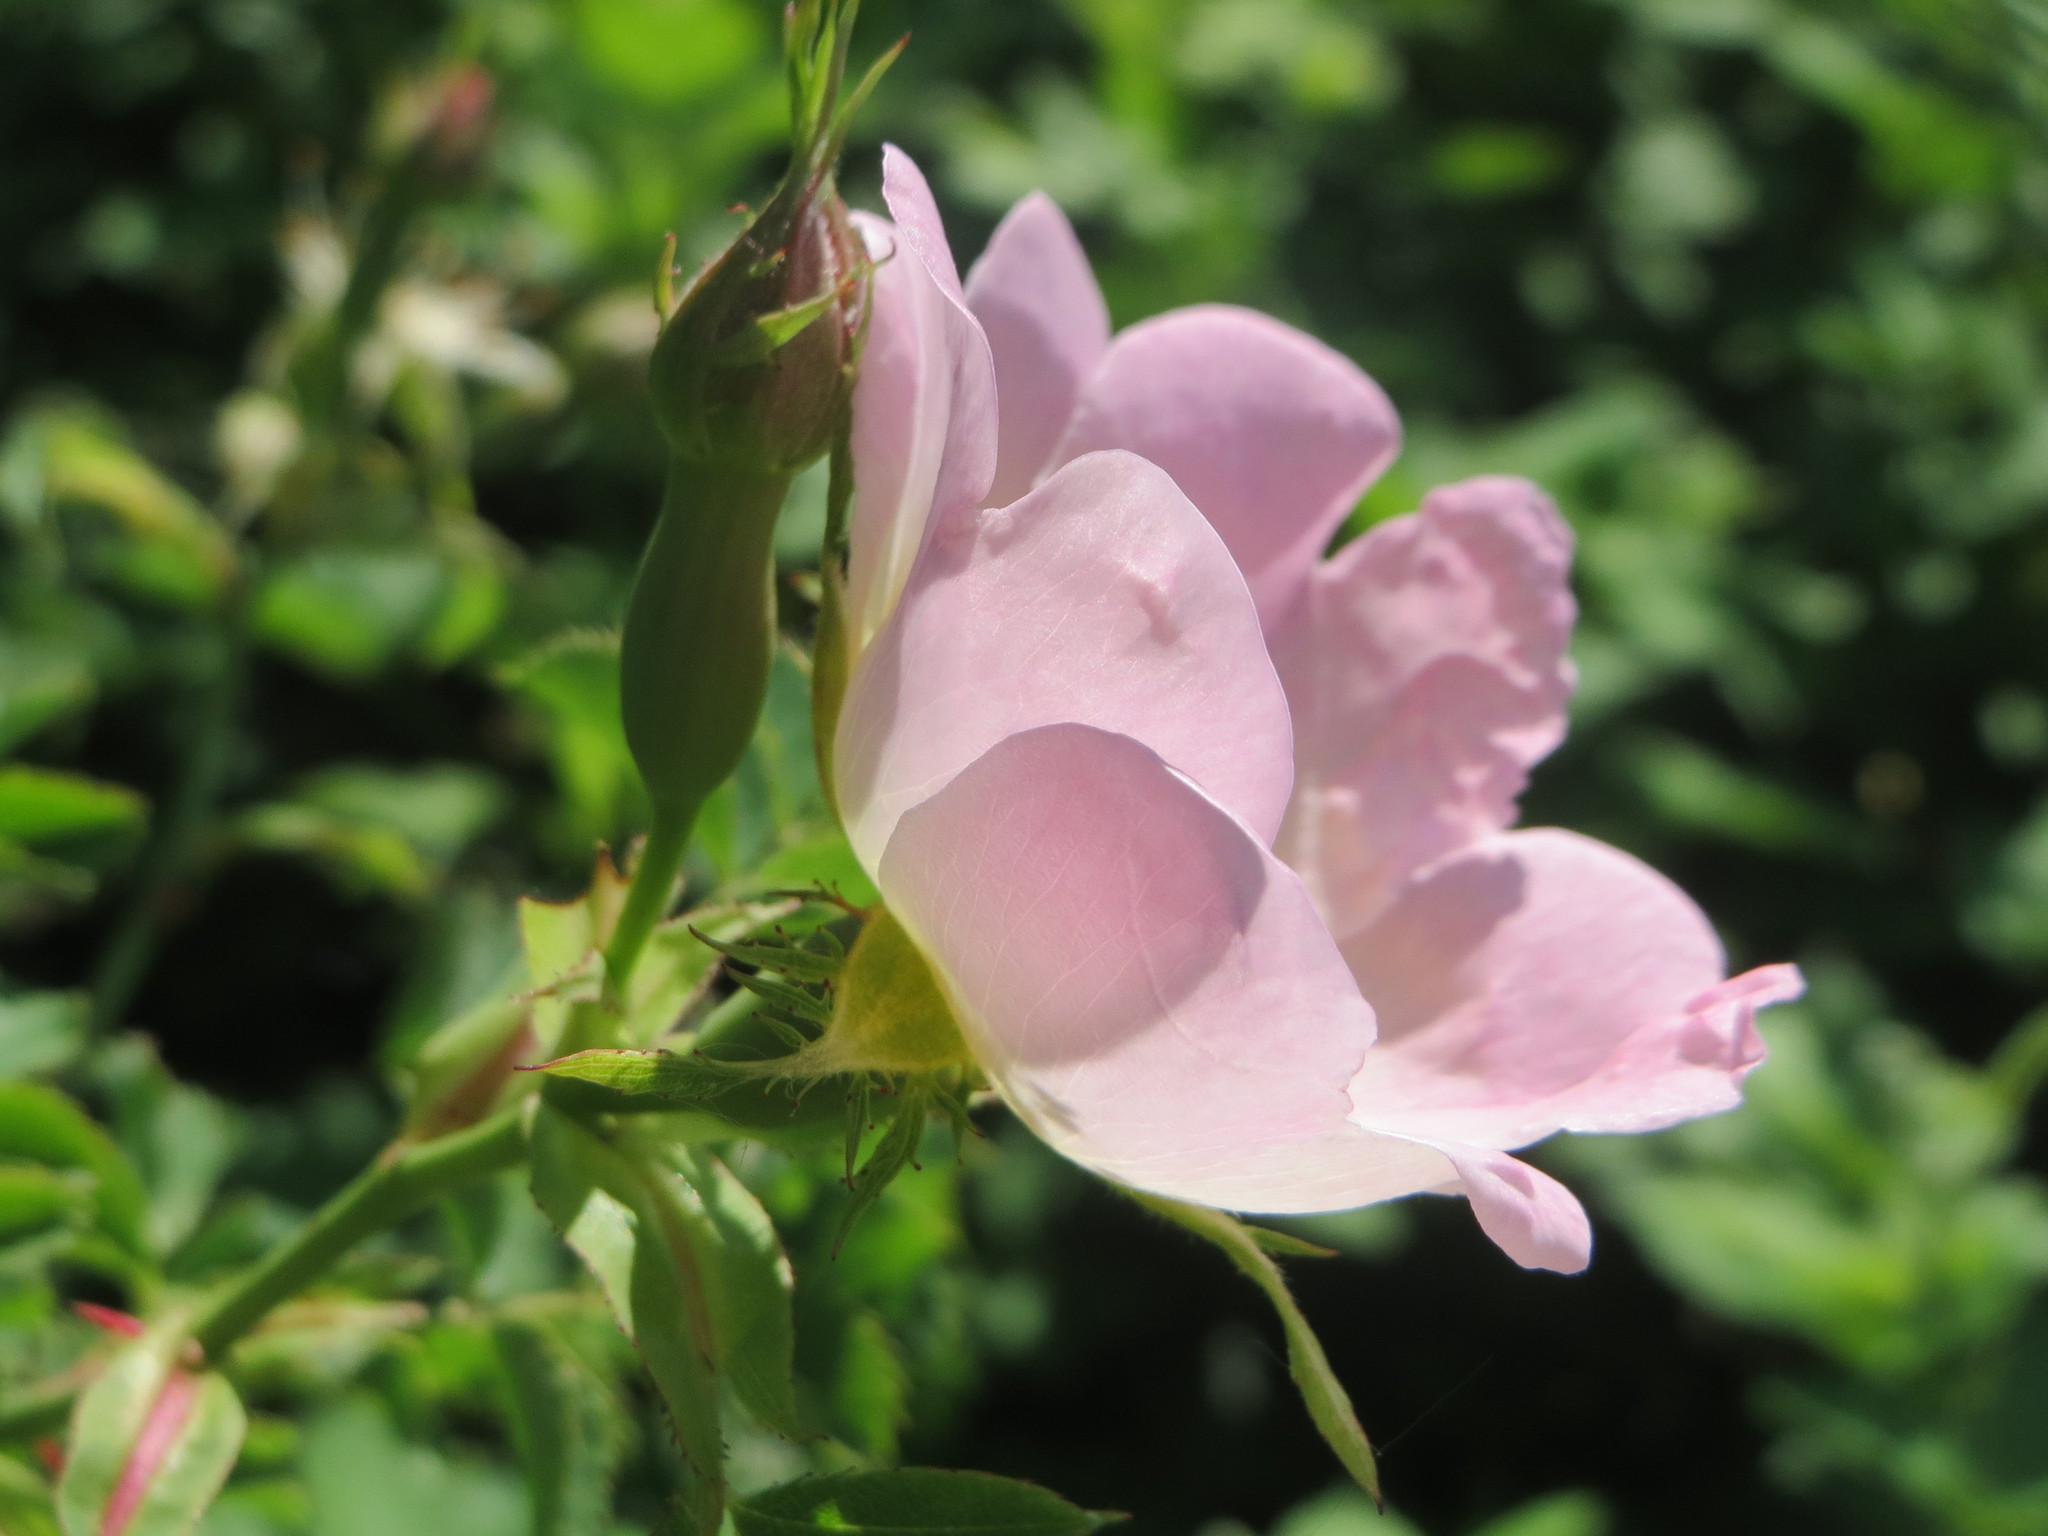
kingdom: Plantae
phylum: Tracheophyta
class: Magnoliopsida
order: Rosales
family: Rosaceae
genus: Rosa
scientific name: Rosa canina
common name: Dog rose
